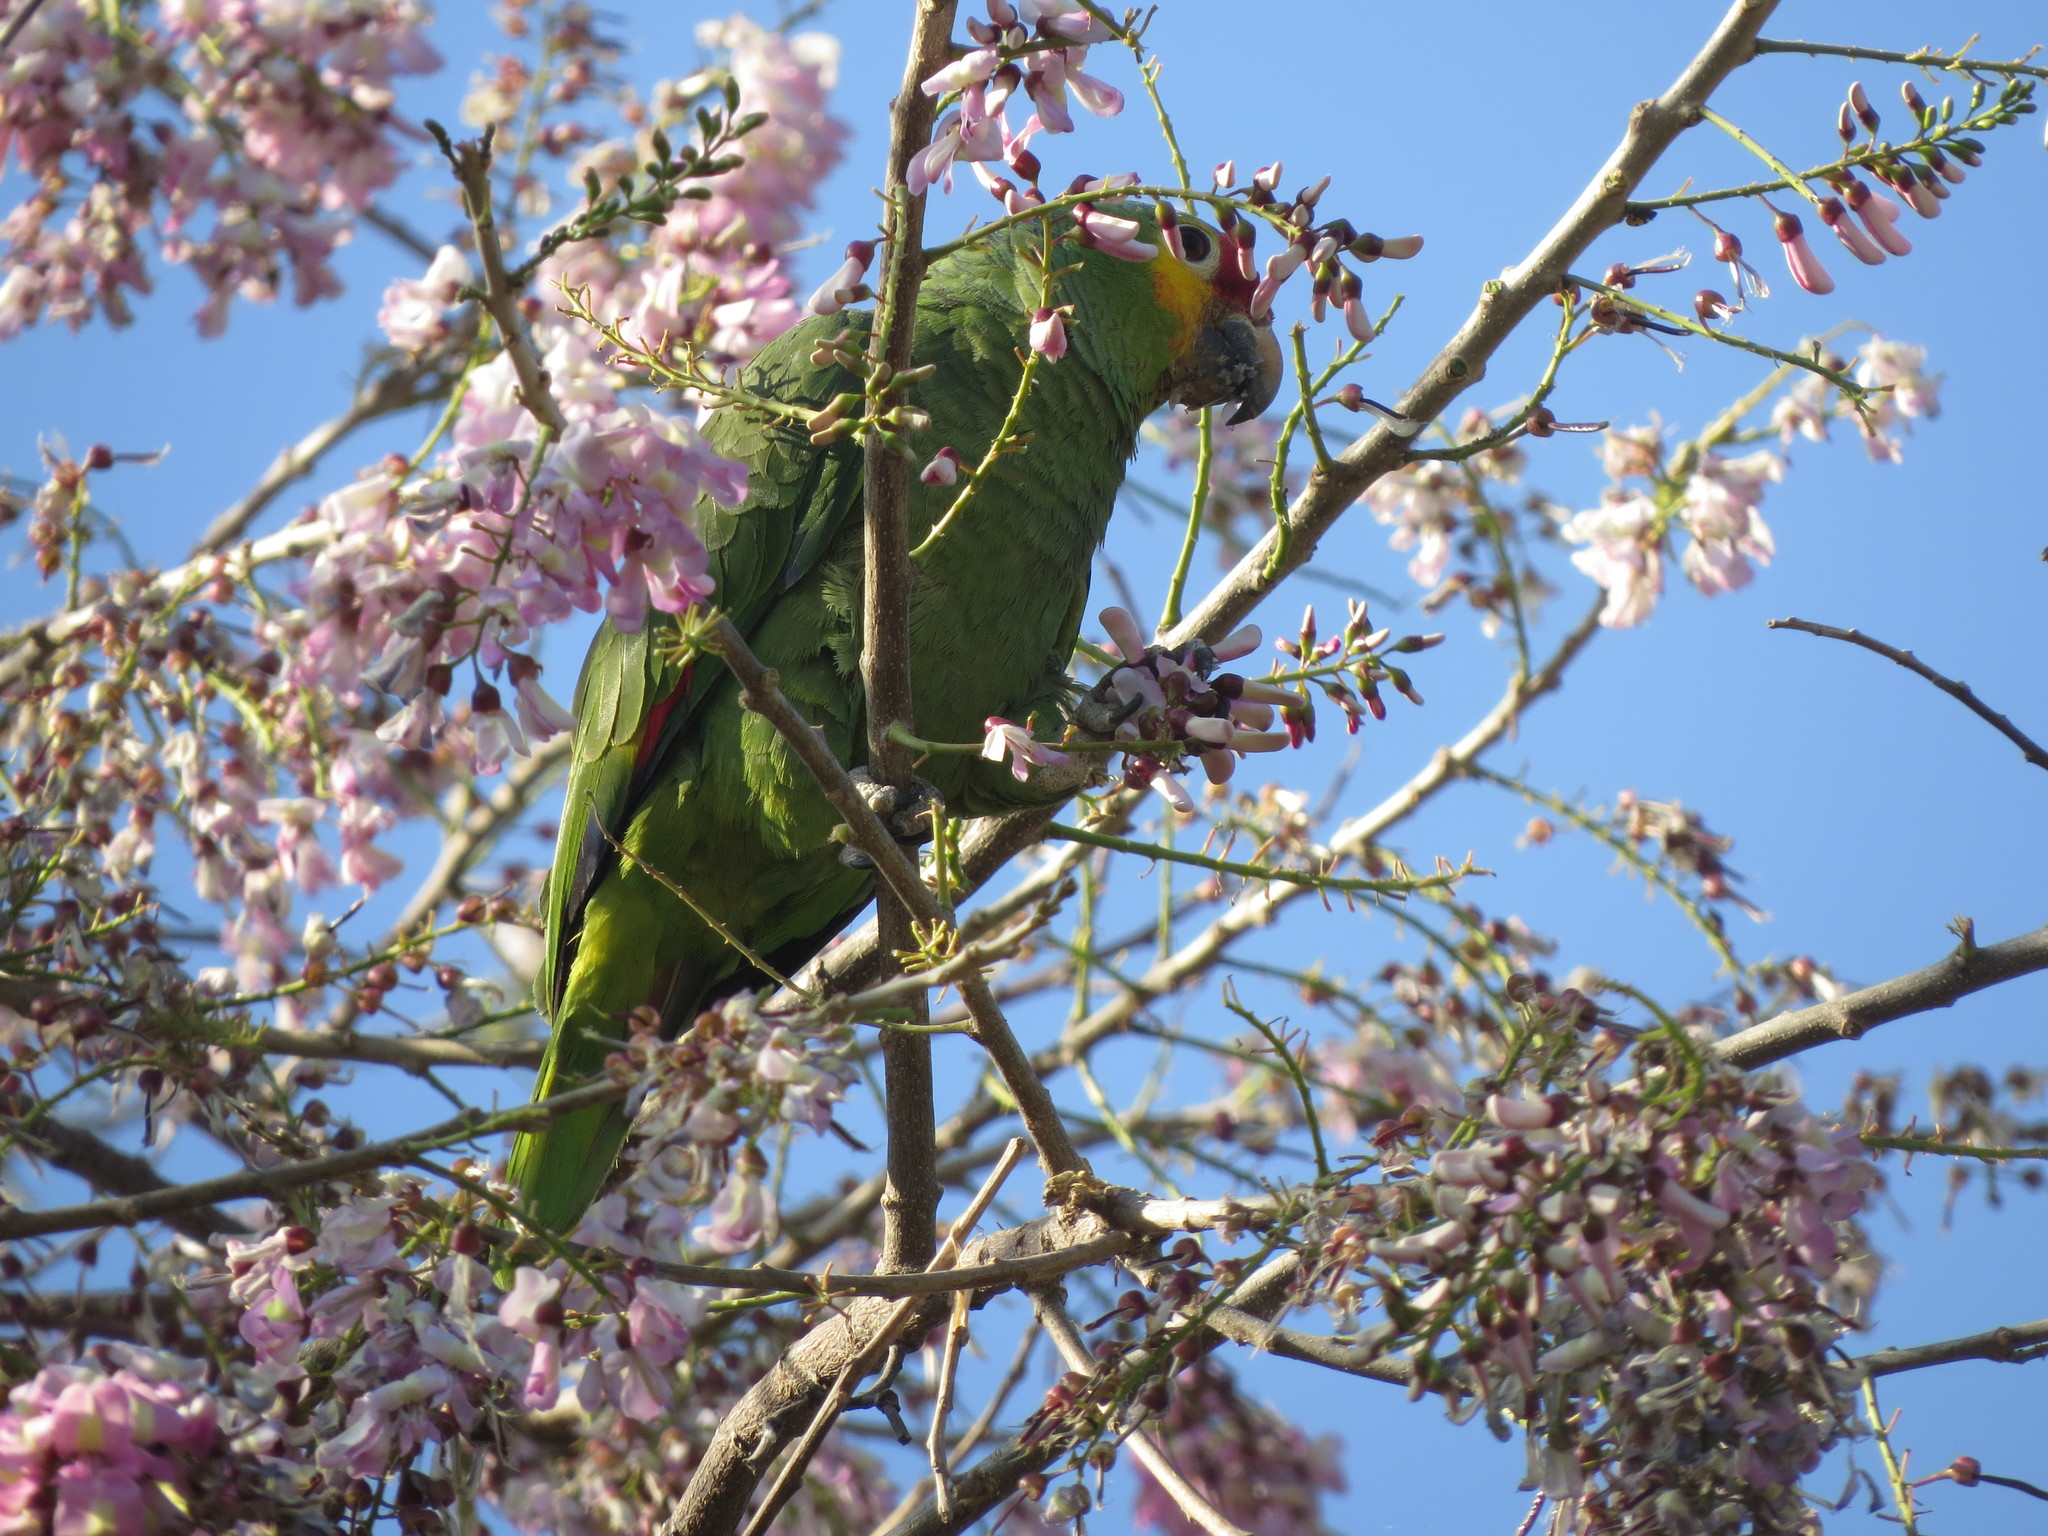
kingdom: Animalia
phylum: Chordata
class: Aves
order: Psittaciformes
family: Psittacidae
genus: Amazona
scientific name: Amazona autumnalis
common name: Red-lored amazon
